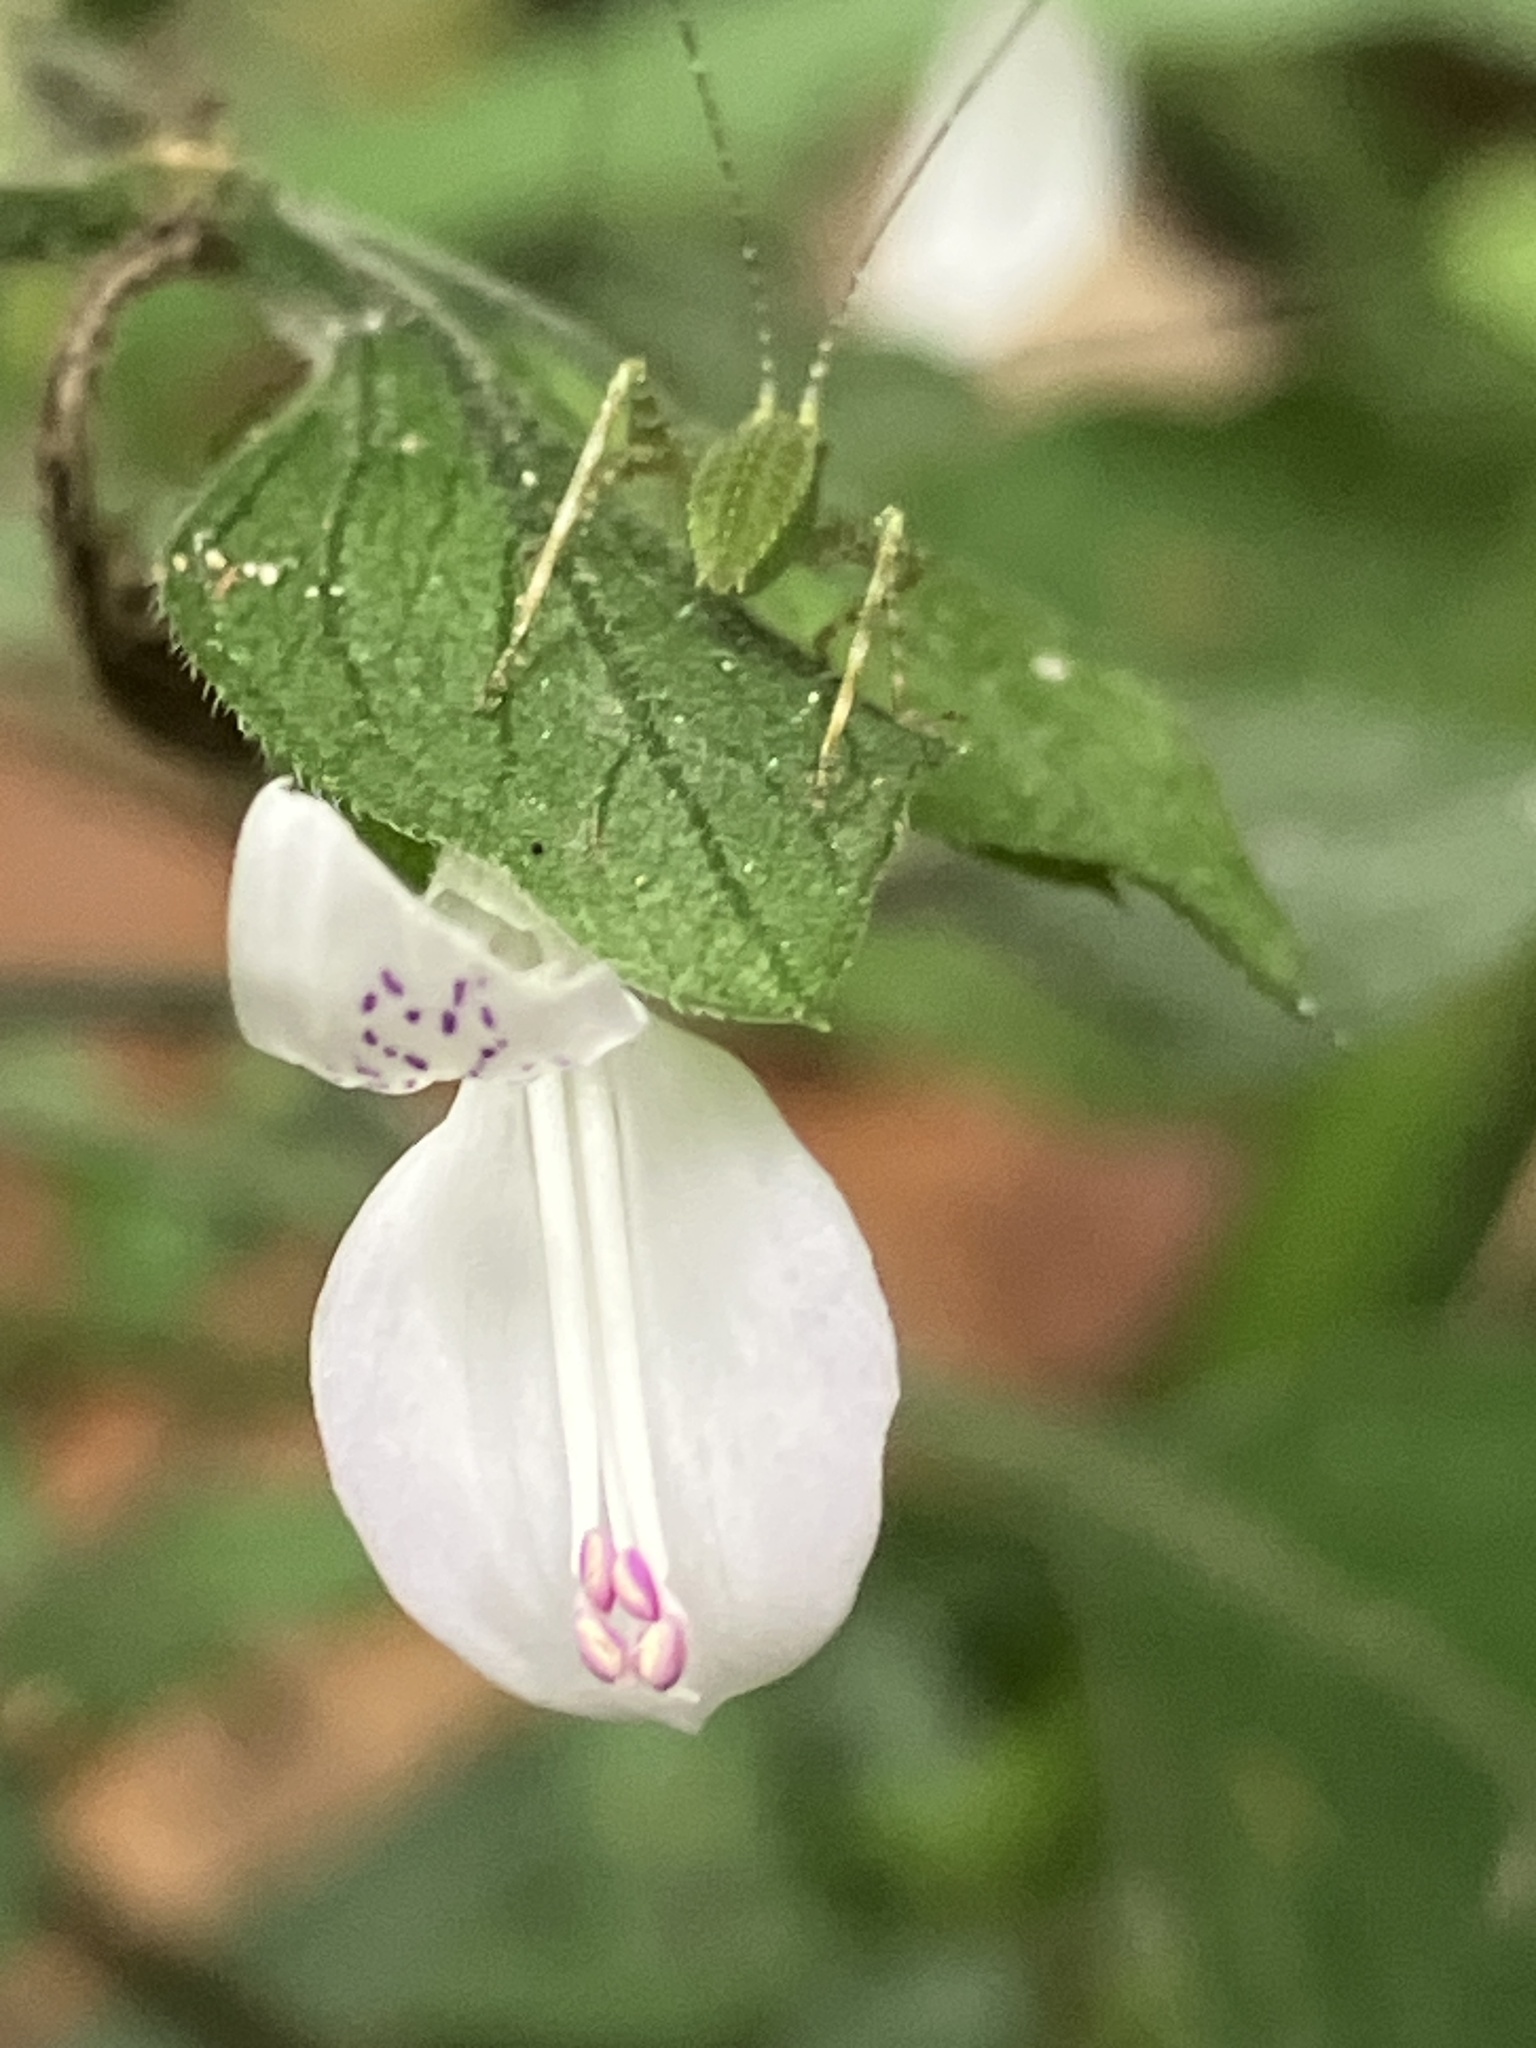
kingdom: Plantae
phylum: Tracheophyta
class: Magnoliopsida
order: Lamiales
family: Acanthaceae
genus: Hypoestes
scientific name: Hypoestes forskaolii
